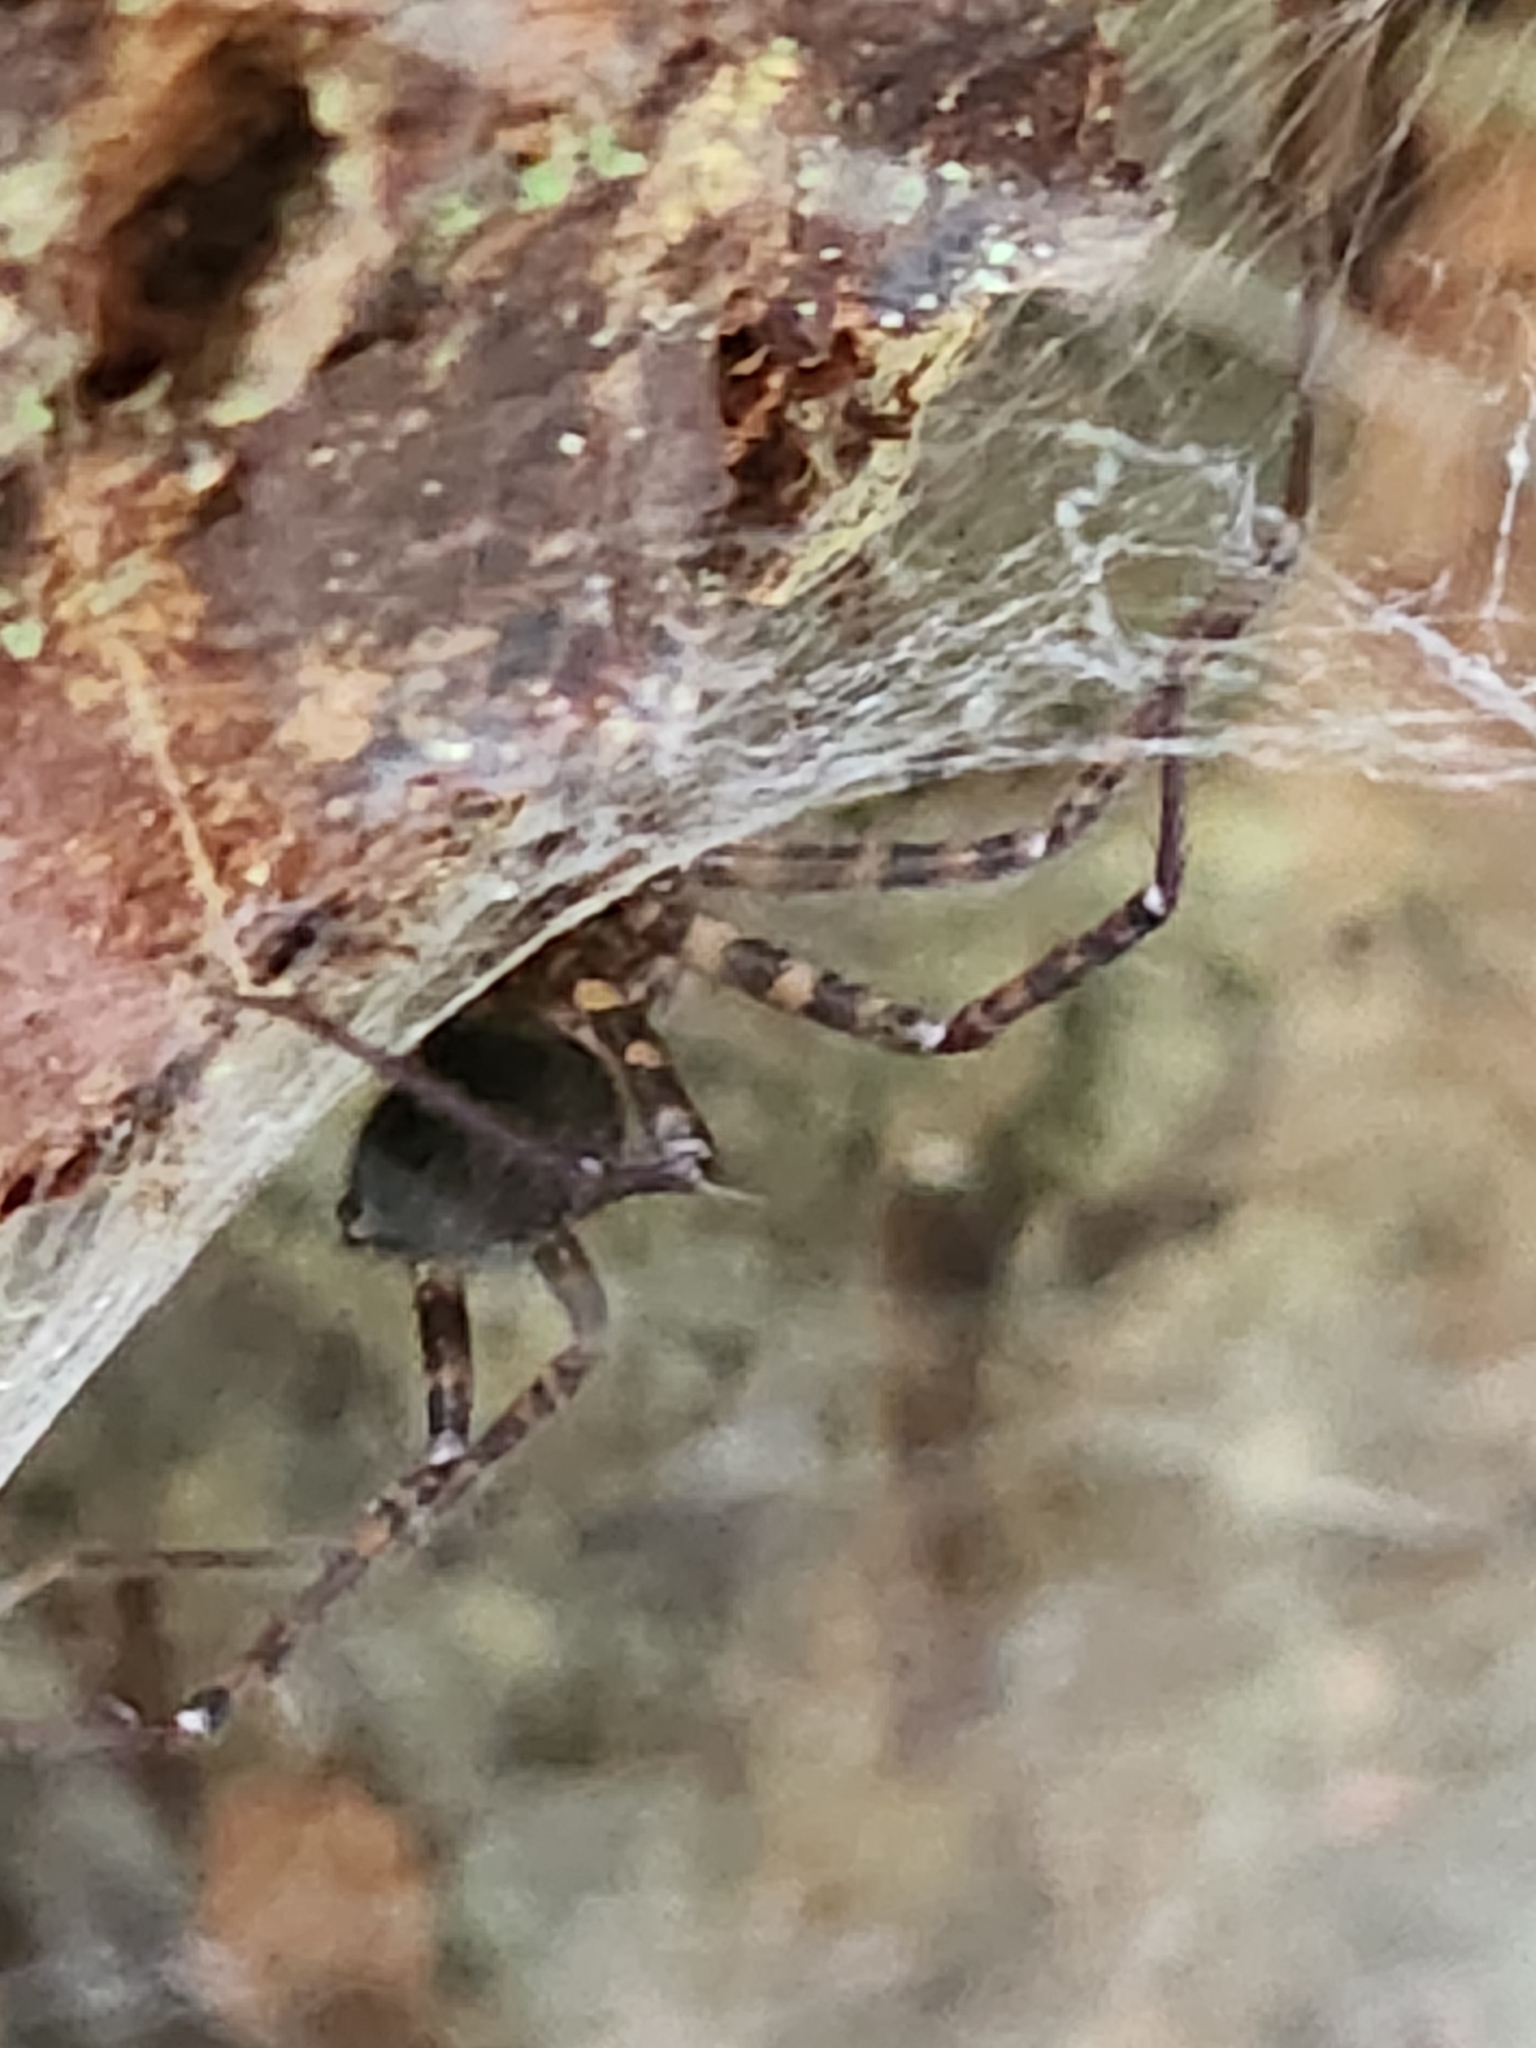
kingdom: Animalia
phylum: Arthropoda
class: Arachnida
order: Araneae
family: Cybaeidae
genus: Calymmaria
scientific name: Calymmaria
